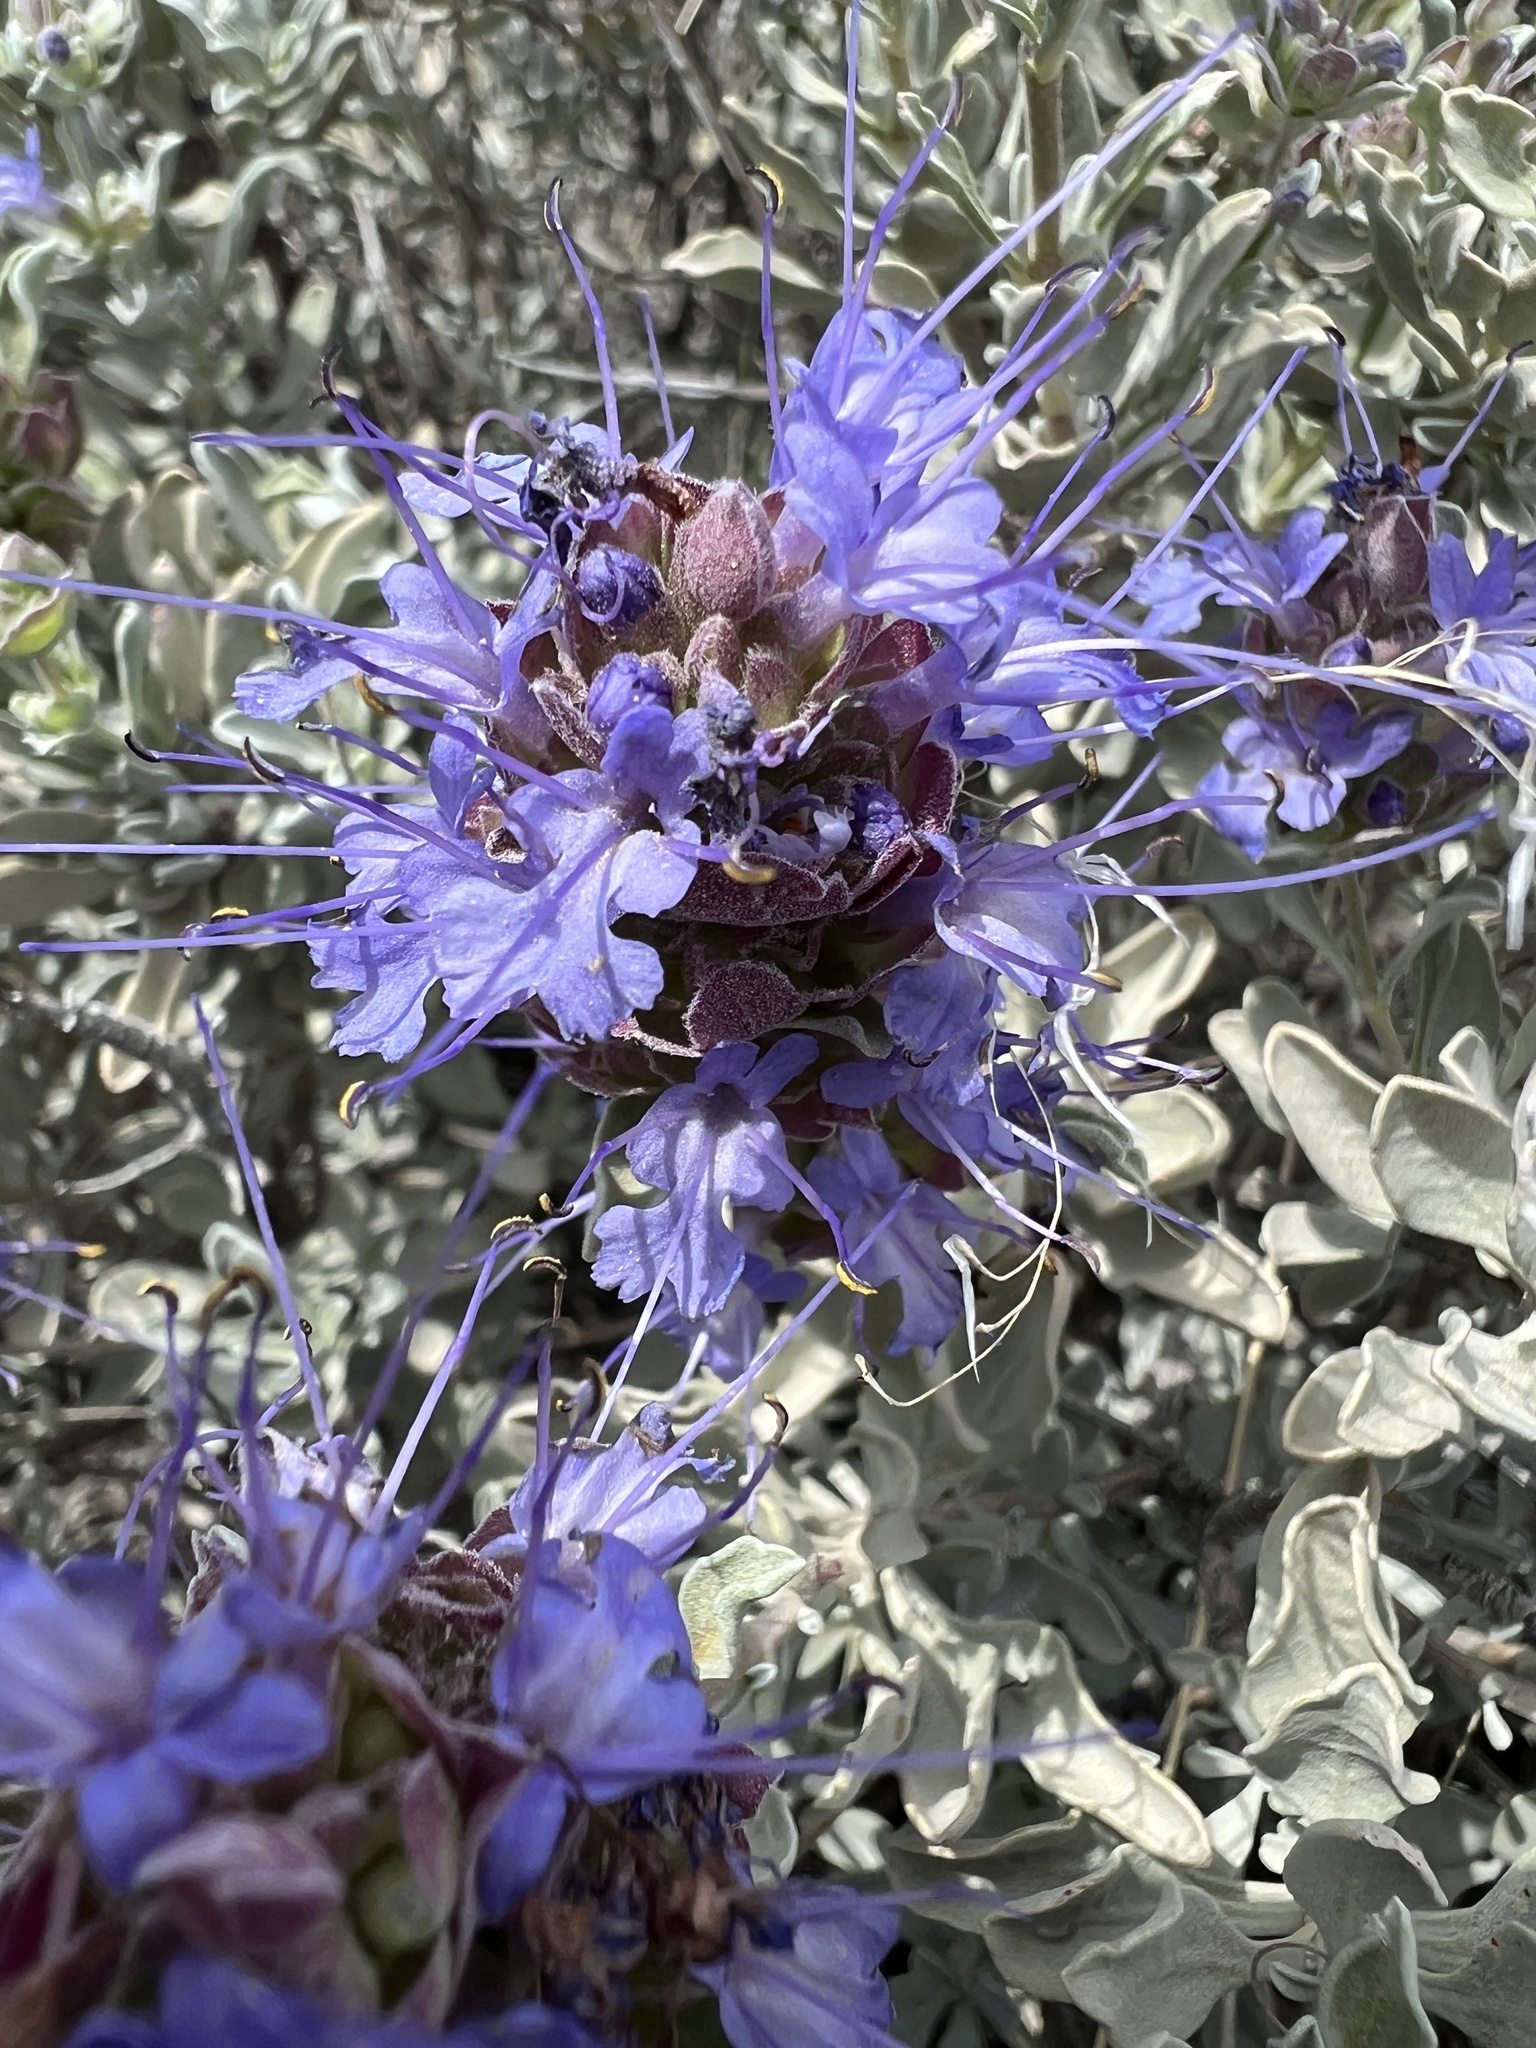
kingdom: Plantae
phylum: Tracheophyta
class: Magnoliopsida
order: Lamiales
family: Lamiaceae
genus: Salvia
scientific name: Salvia dorrii
